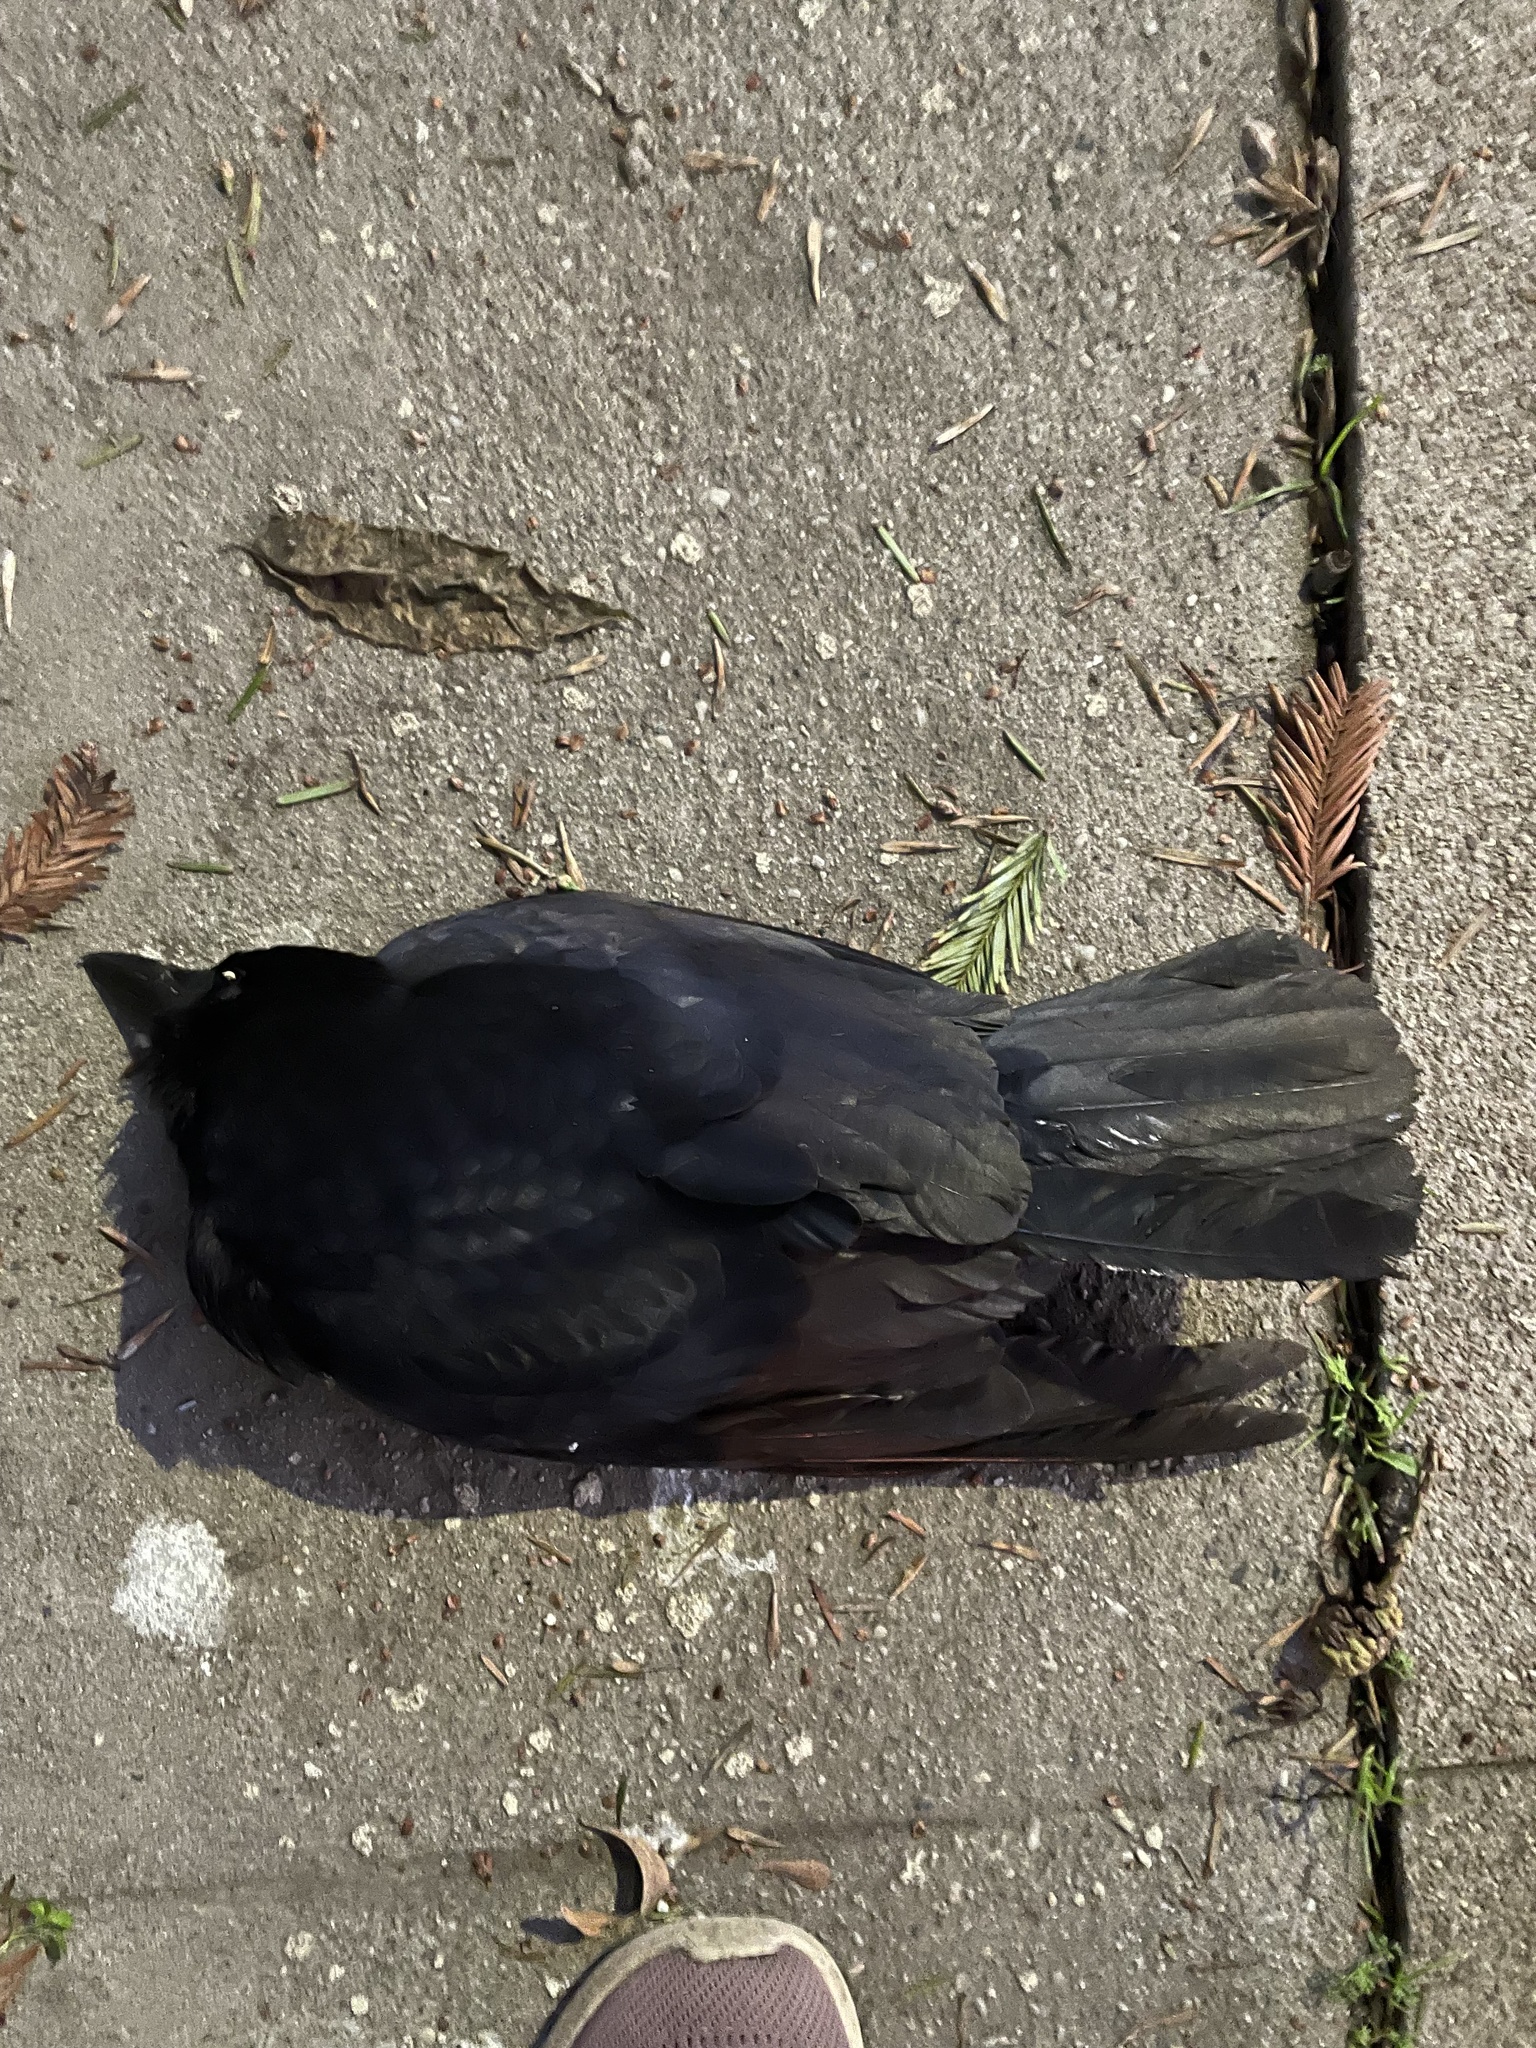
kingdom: Animalia
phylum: Chordata
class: Aves
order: Passeriformes
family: Corvidae
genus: Corvus
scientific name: Corvus brachyrhynchos
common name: American crow
